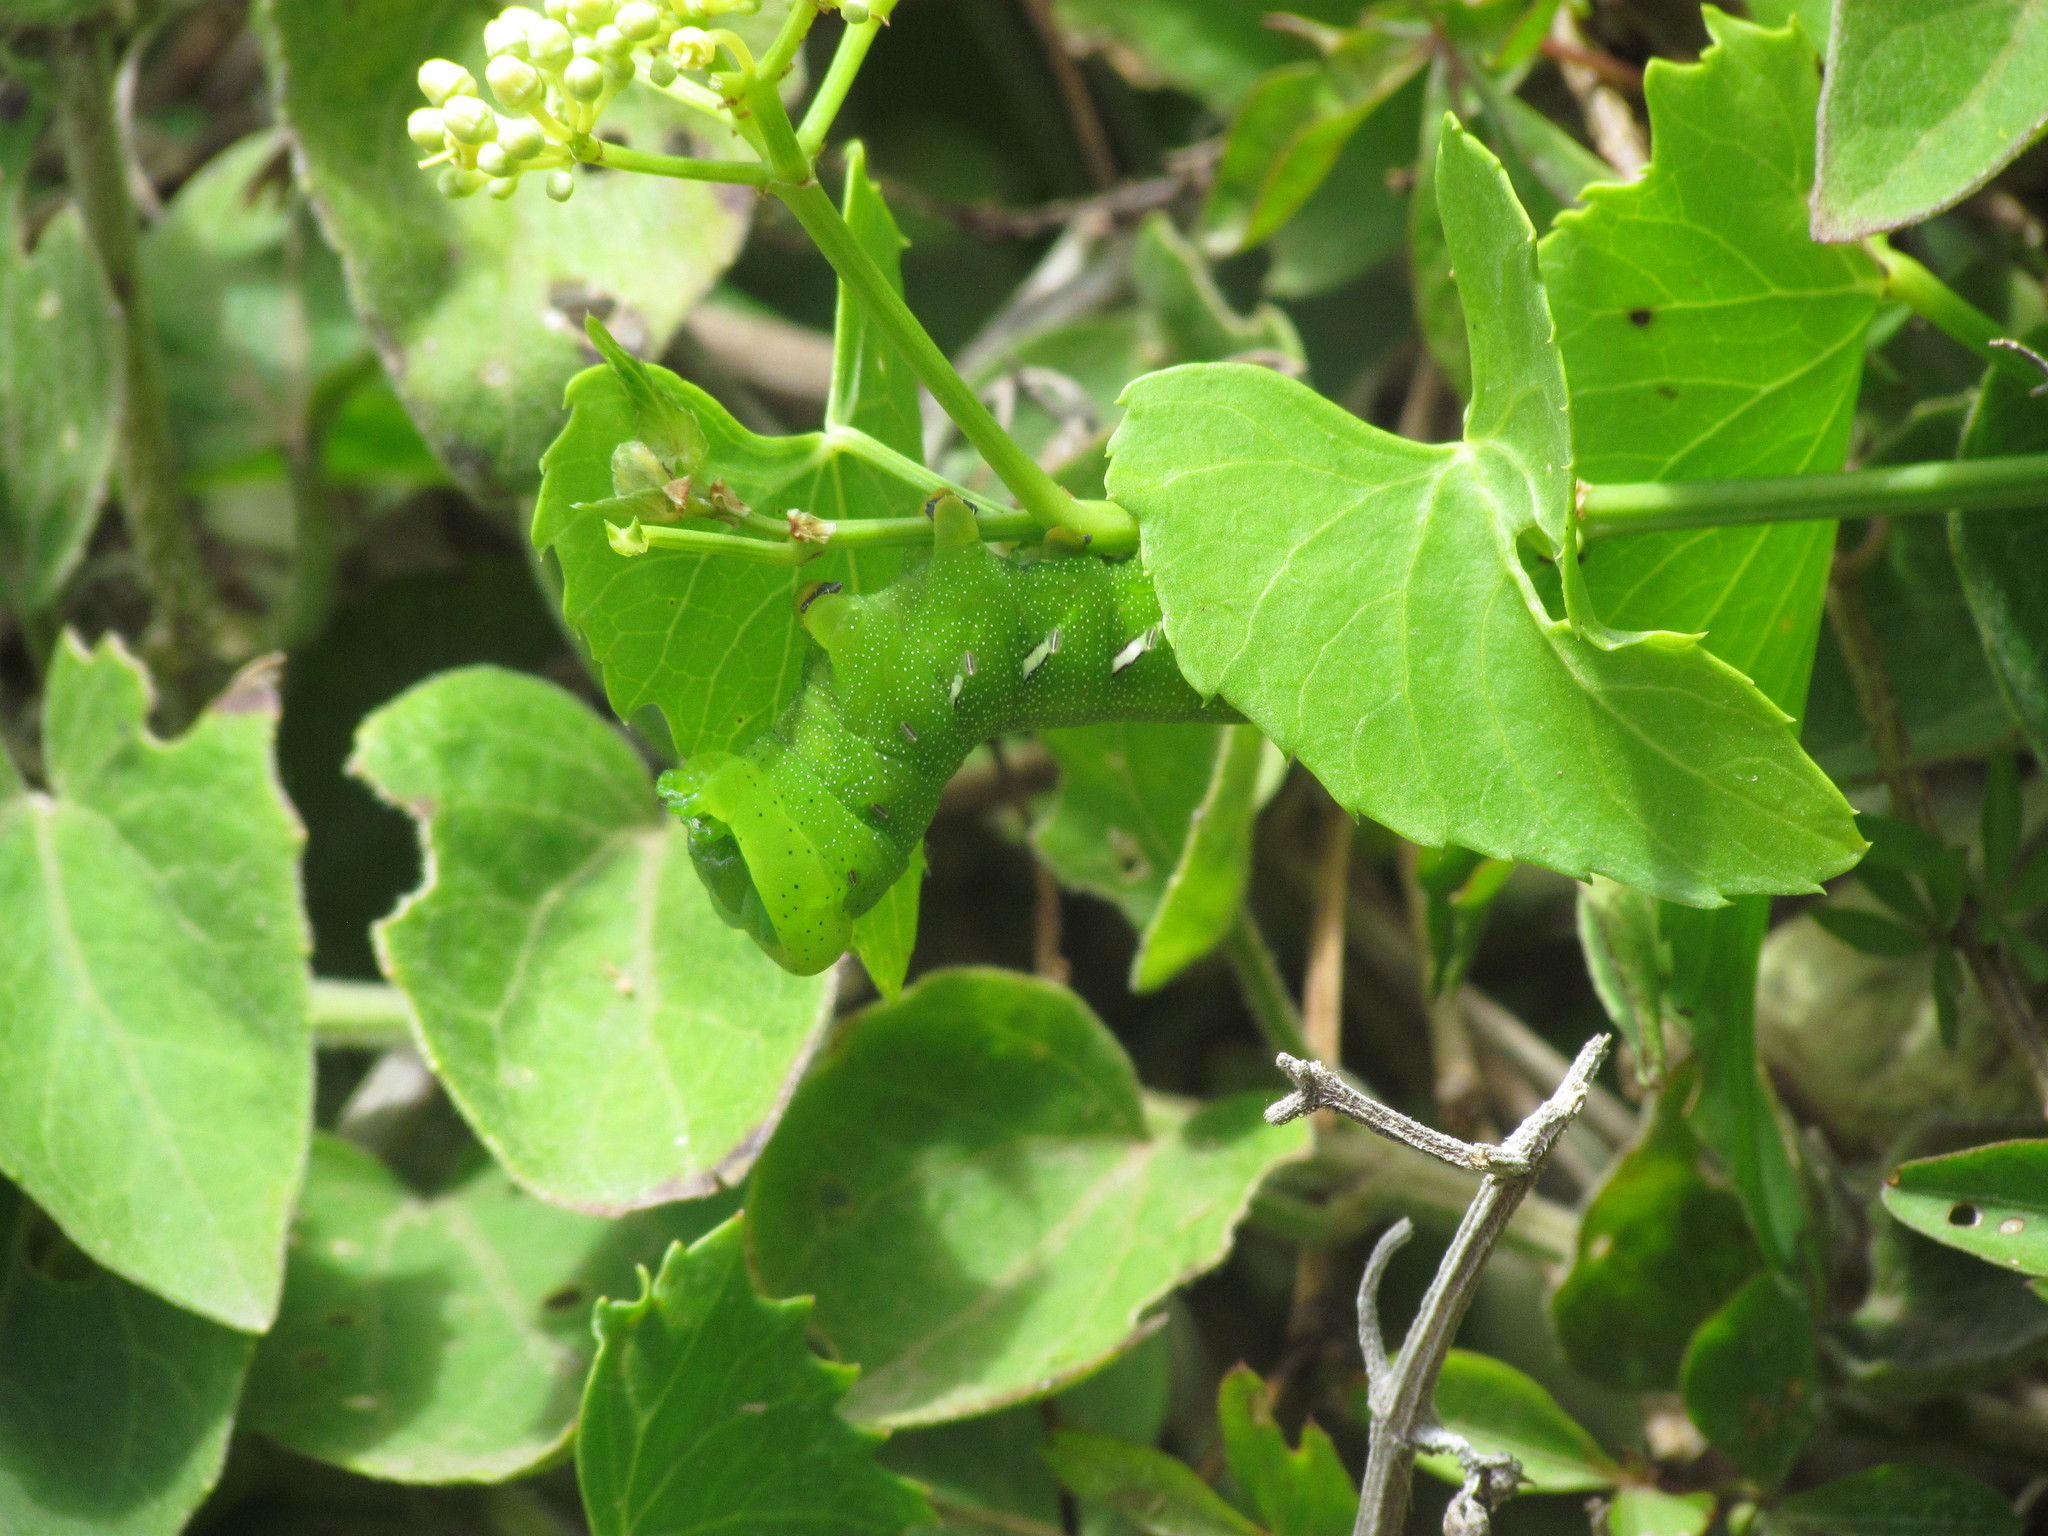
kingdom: Animalia
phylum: Arthropoda
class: Insecta
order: Lepidoptera
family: Sphingidae
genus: Eumorpha
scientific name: Eumorpha analis
